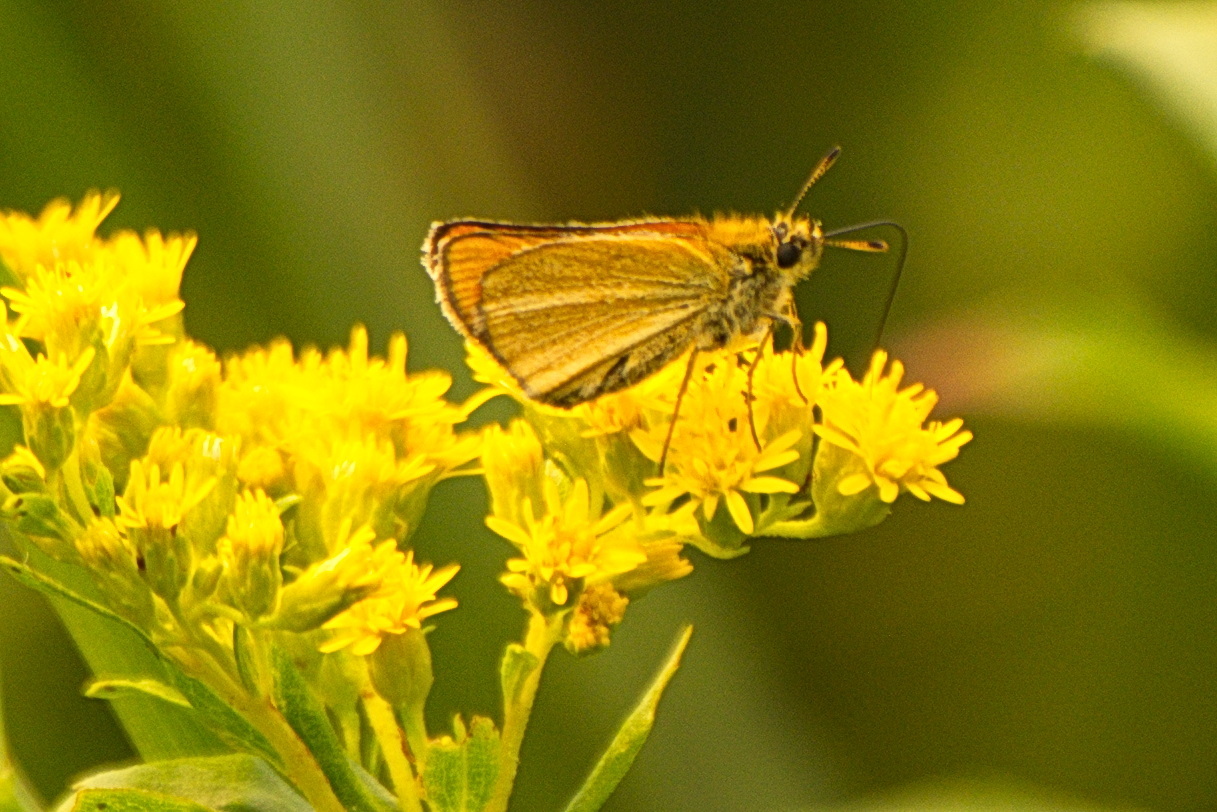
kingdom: Animalia
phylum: Arthropoda
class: Insecta
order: Lepidoptera
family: Hesperiidae
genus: Thymelicus
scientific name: Thymelicus lineola
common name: Essex skipper
